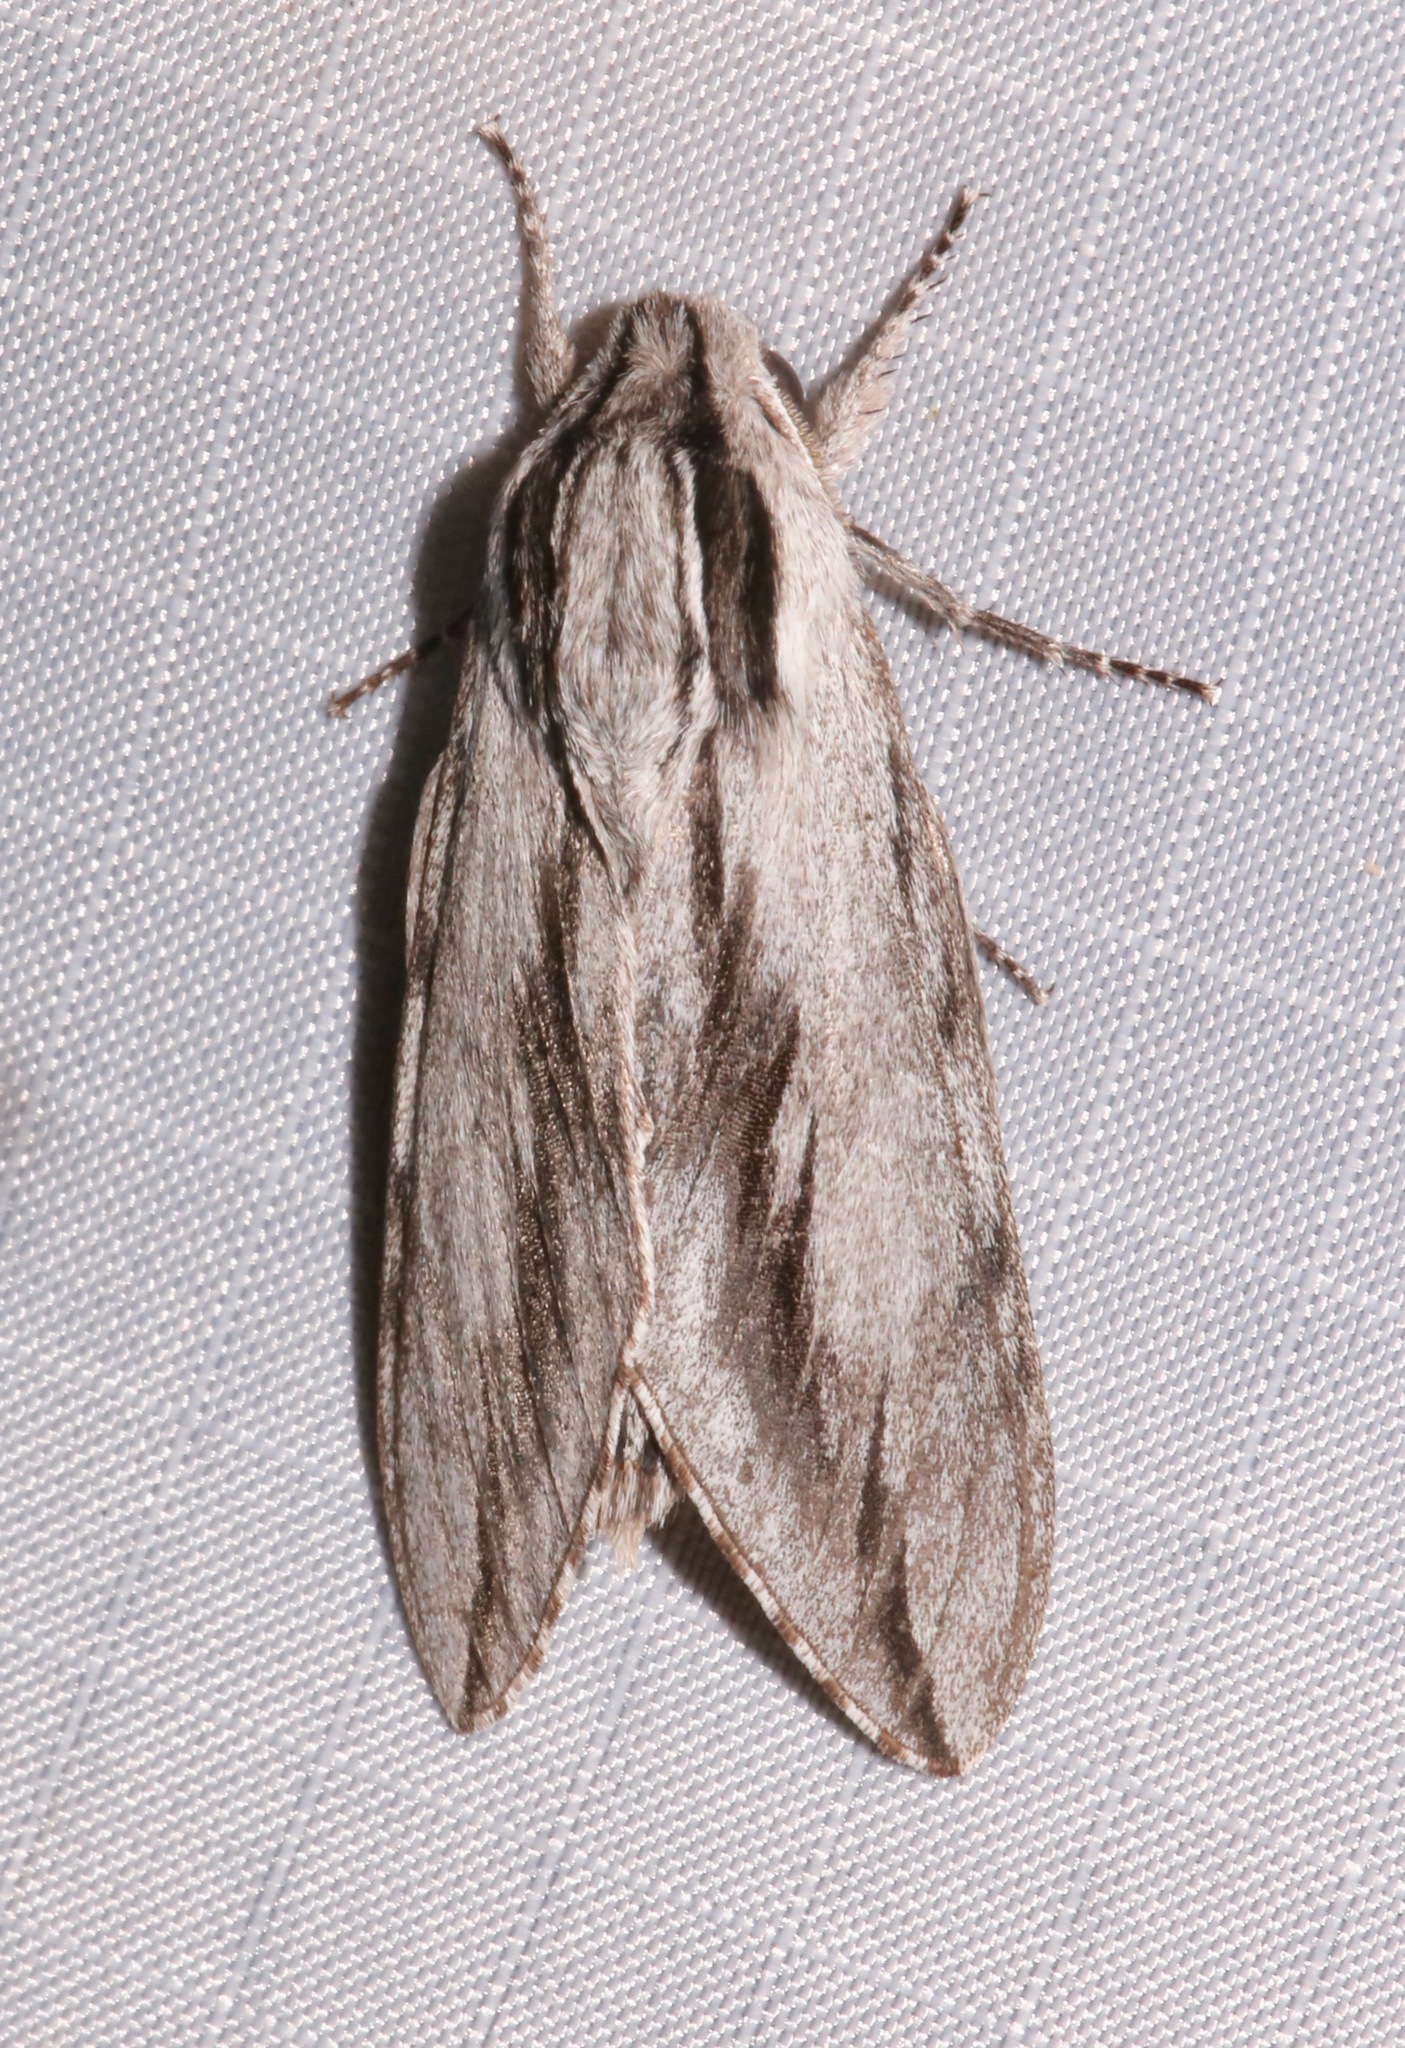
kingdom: Animalia
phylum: Arthropoda
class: Insecta
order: Lepidoptera
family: Sphingidae
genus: Sphinx
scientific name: Sphinx dollii
